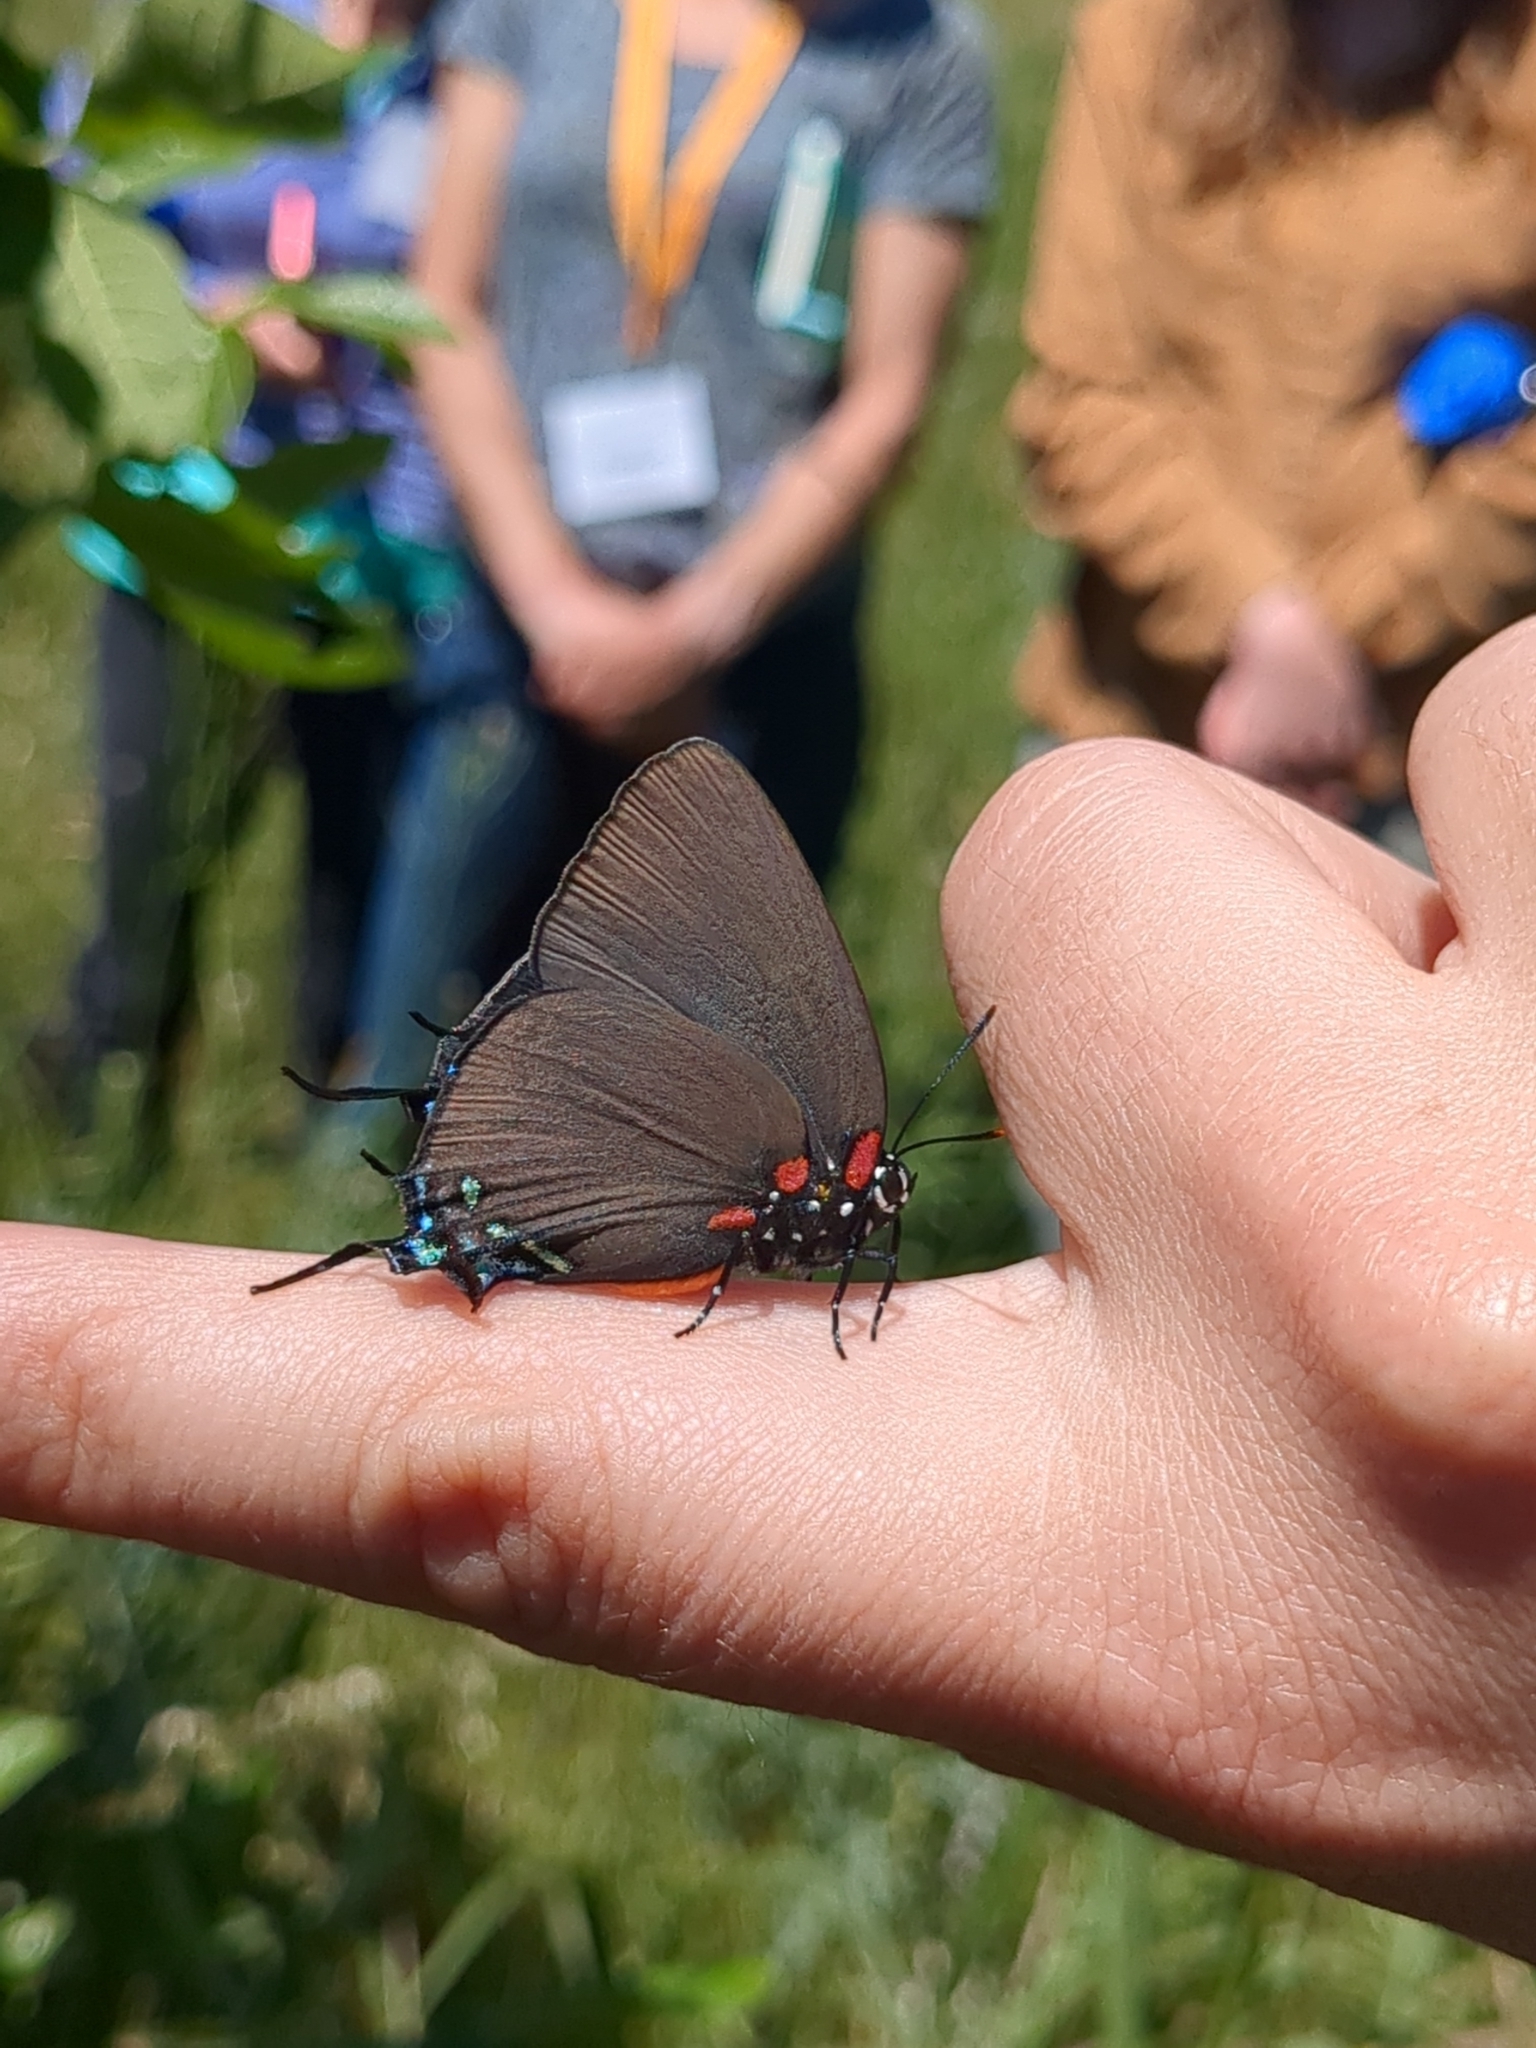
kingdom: Animalia
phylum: Arthropoda
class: Insecta
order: Lepidoptera
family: Lycaenidae
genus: Atlides
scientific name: Atlides halesus
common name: Great purple hairstreak
